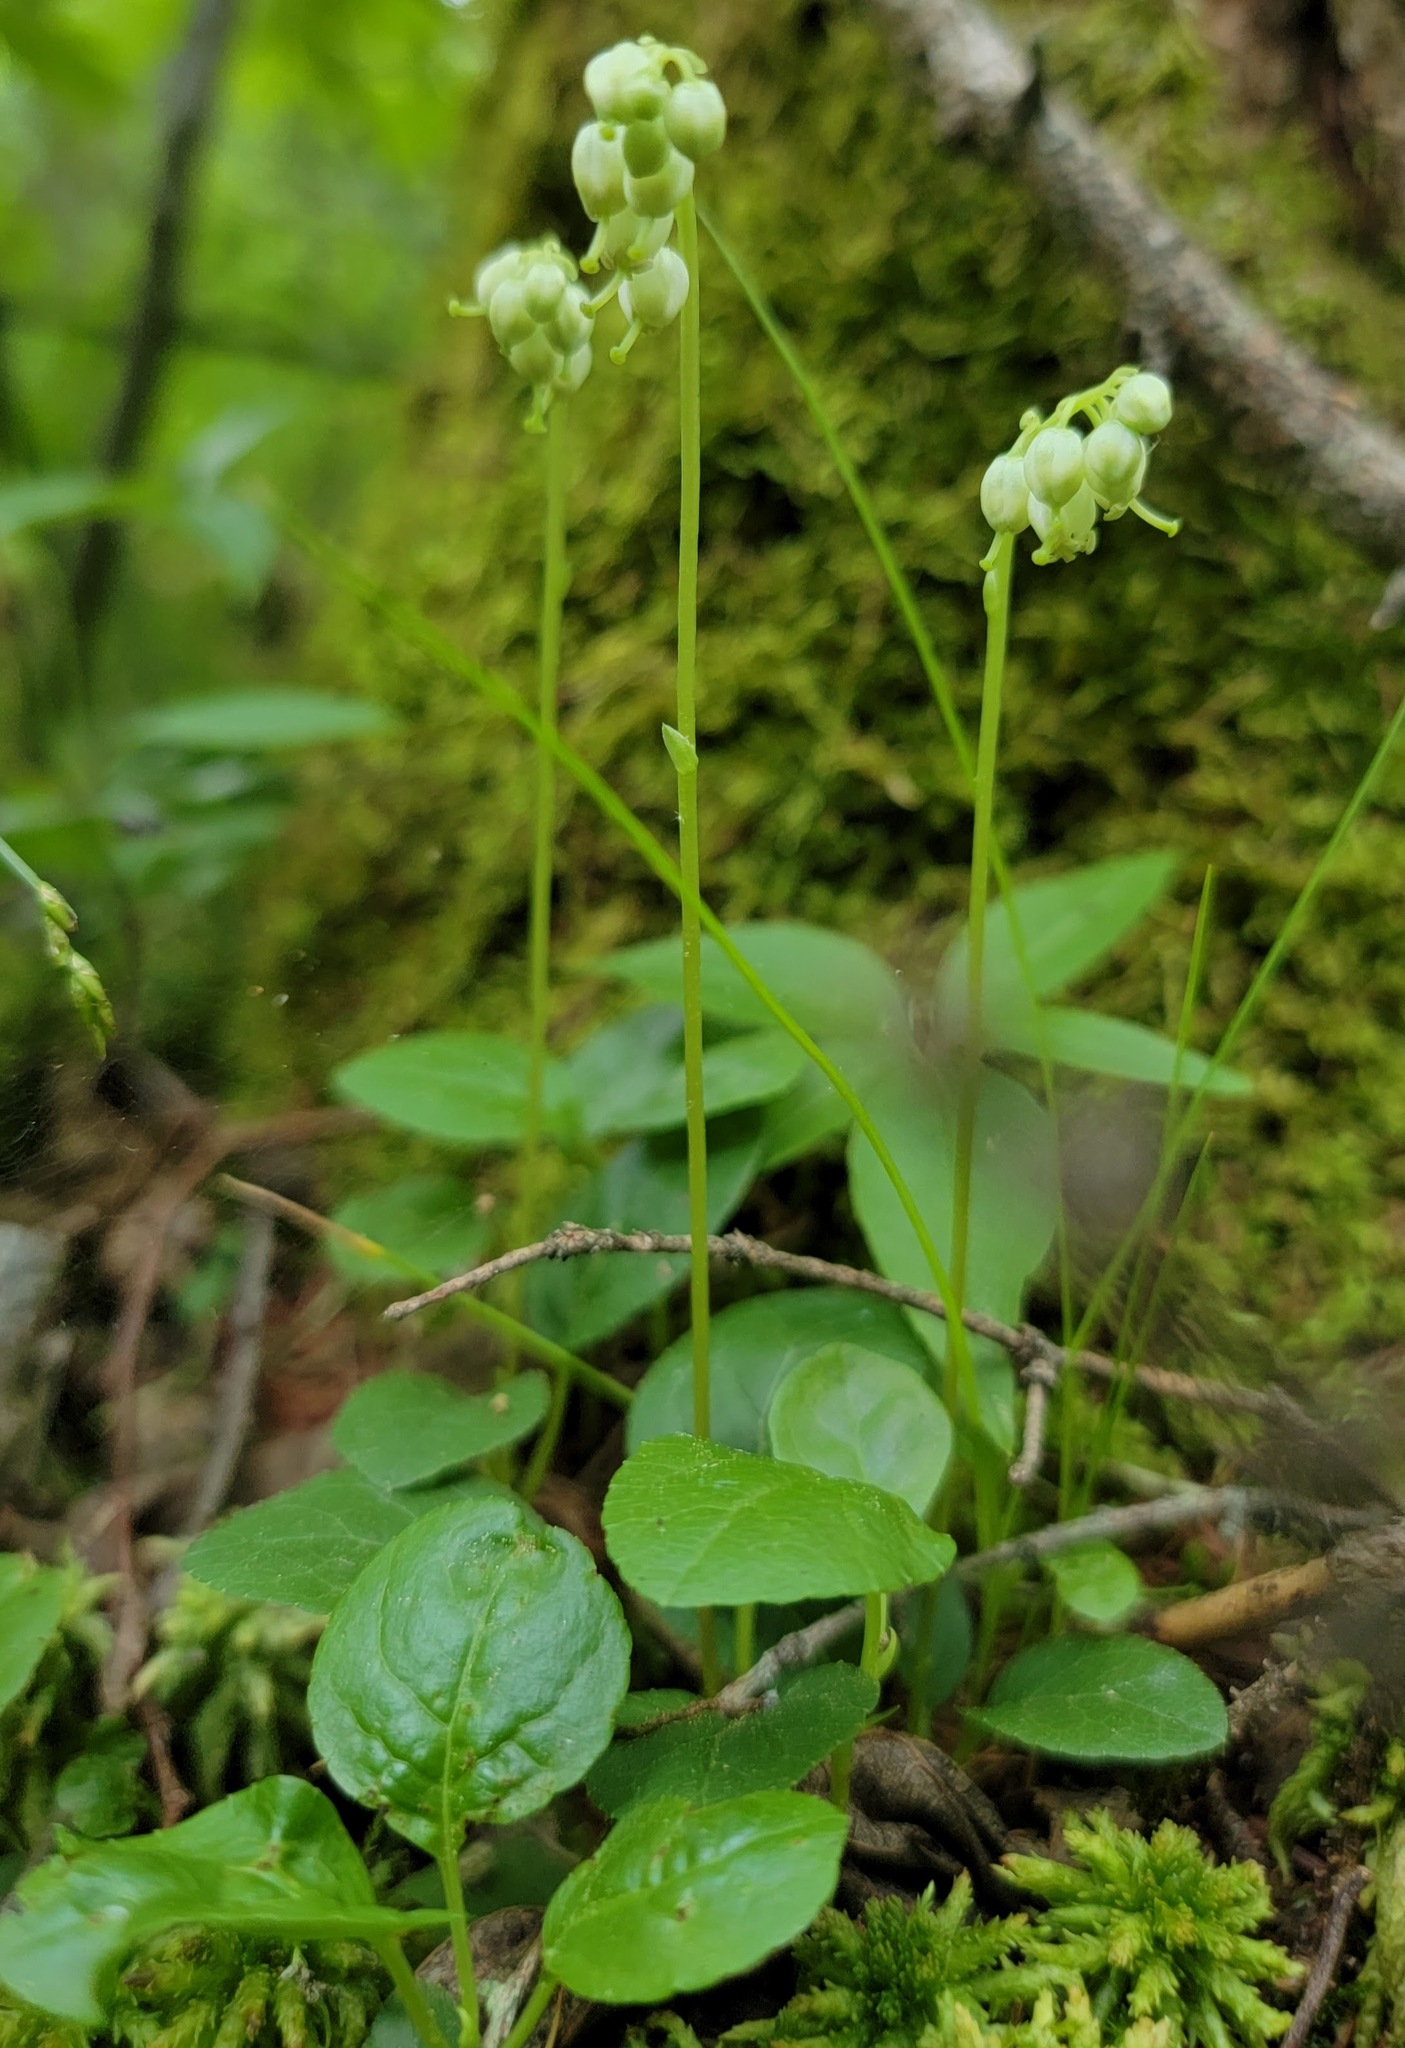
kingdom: Plantae
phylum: Tracheophyta
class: Magnoliopsida
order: Ericales
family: Ericaceae
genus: Orthilia
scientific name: Orthilia secunda
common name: One-sided orthilia
